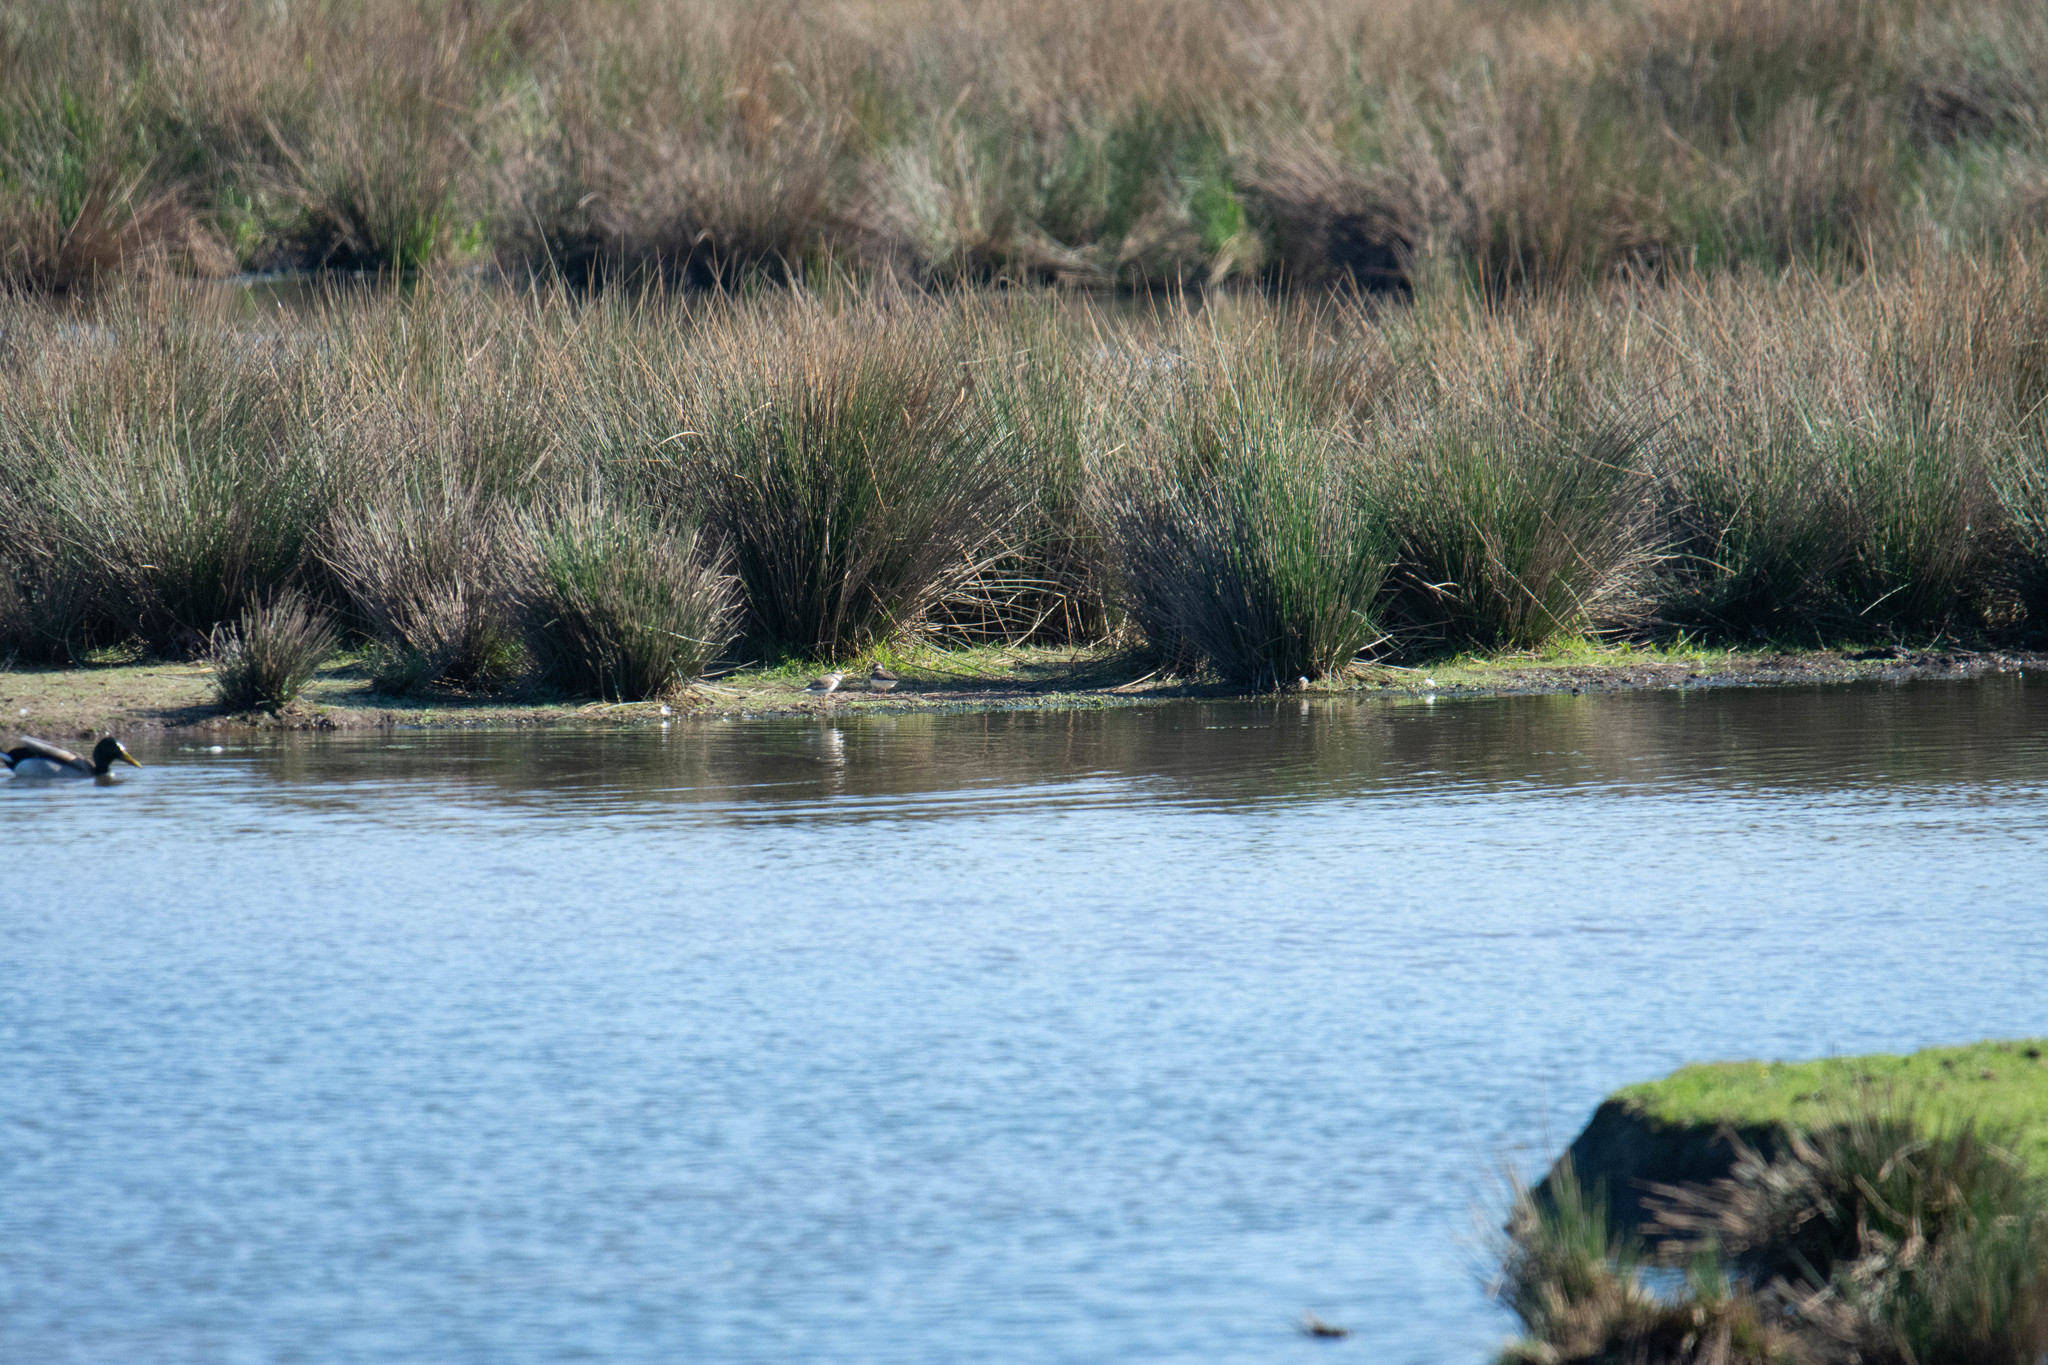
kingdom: Animalia
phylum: Chordata
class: Aves
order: Charadriiformes
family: Charadriidae
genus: Charadrius
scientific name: Charadrius dubius
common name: Little ringed plover
